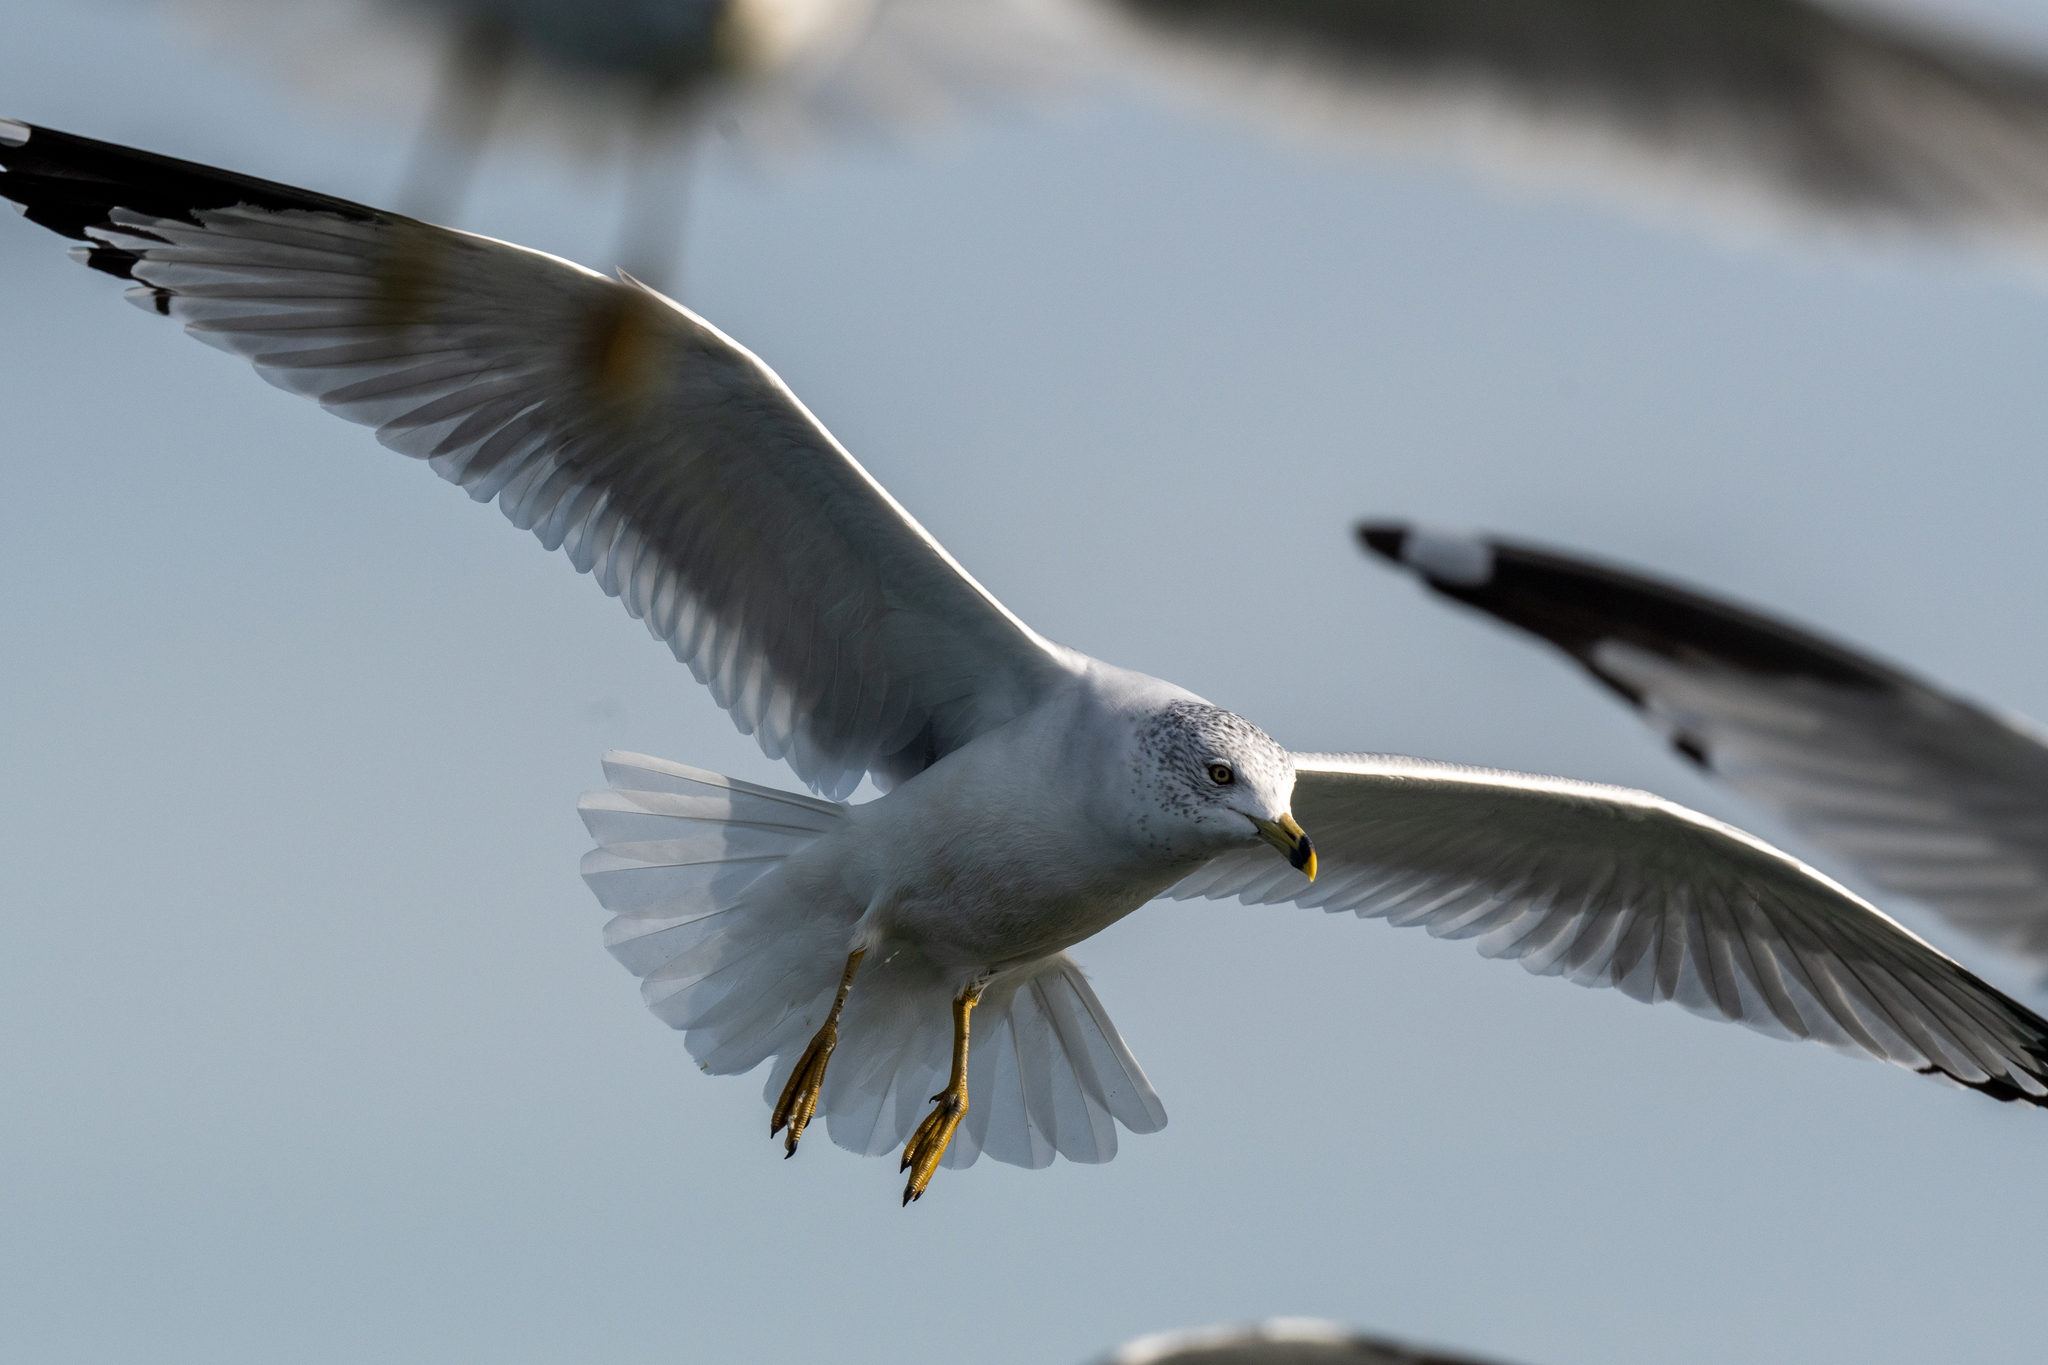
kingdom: Animalia
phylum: Chordata
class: Aves
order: Charadriiformes
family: Laridae
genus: Larus
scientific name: Larus delawarensis
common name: Ring-billed gull
